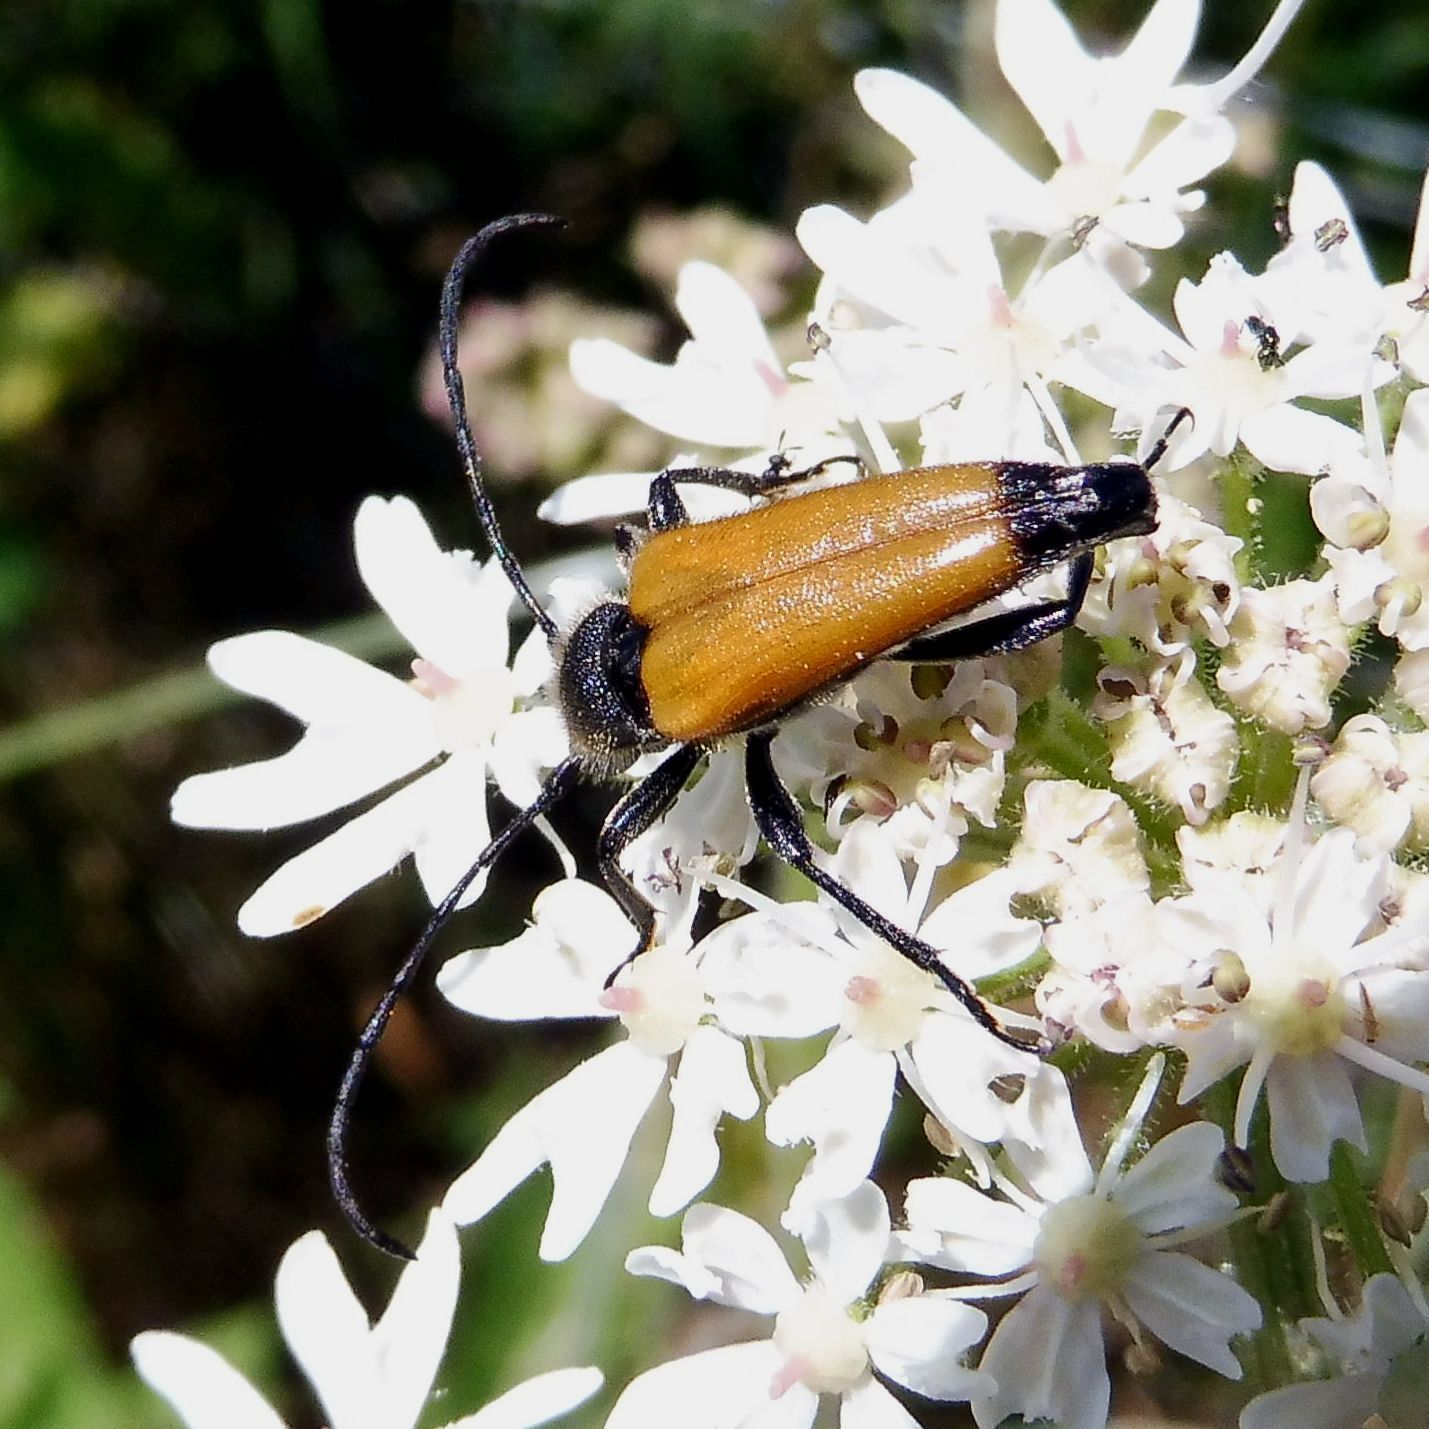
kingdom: Animalia
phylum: Arthropoda
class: Insecta
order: Coleoptera
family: Cerambycidae
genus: Paracorymbia
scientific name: Paracorymbia fulva
